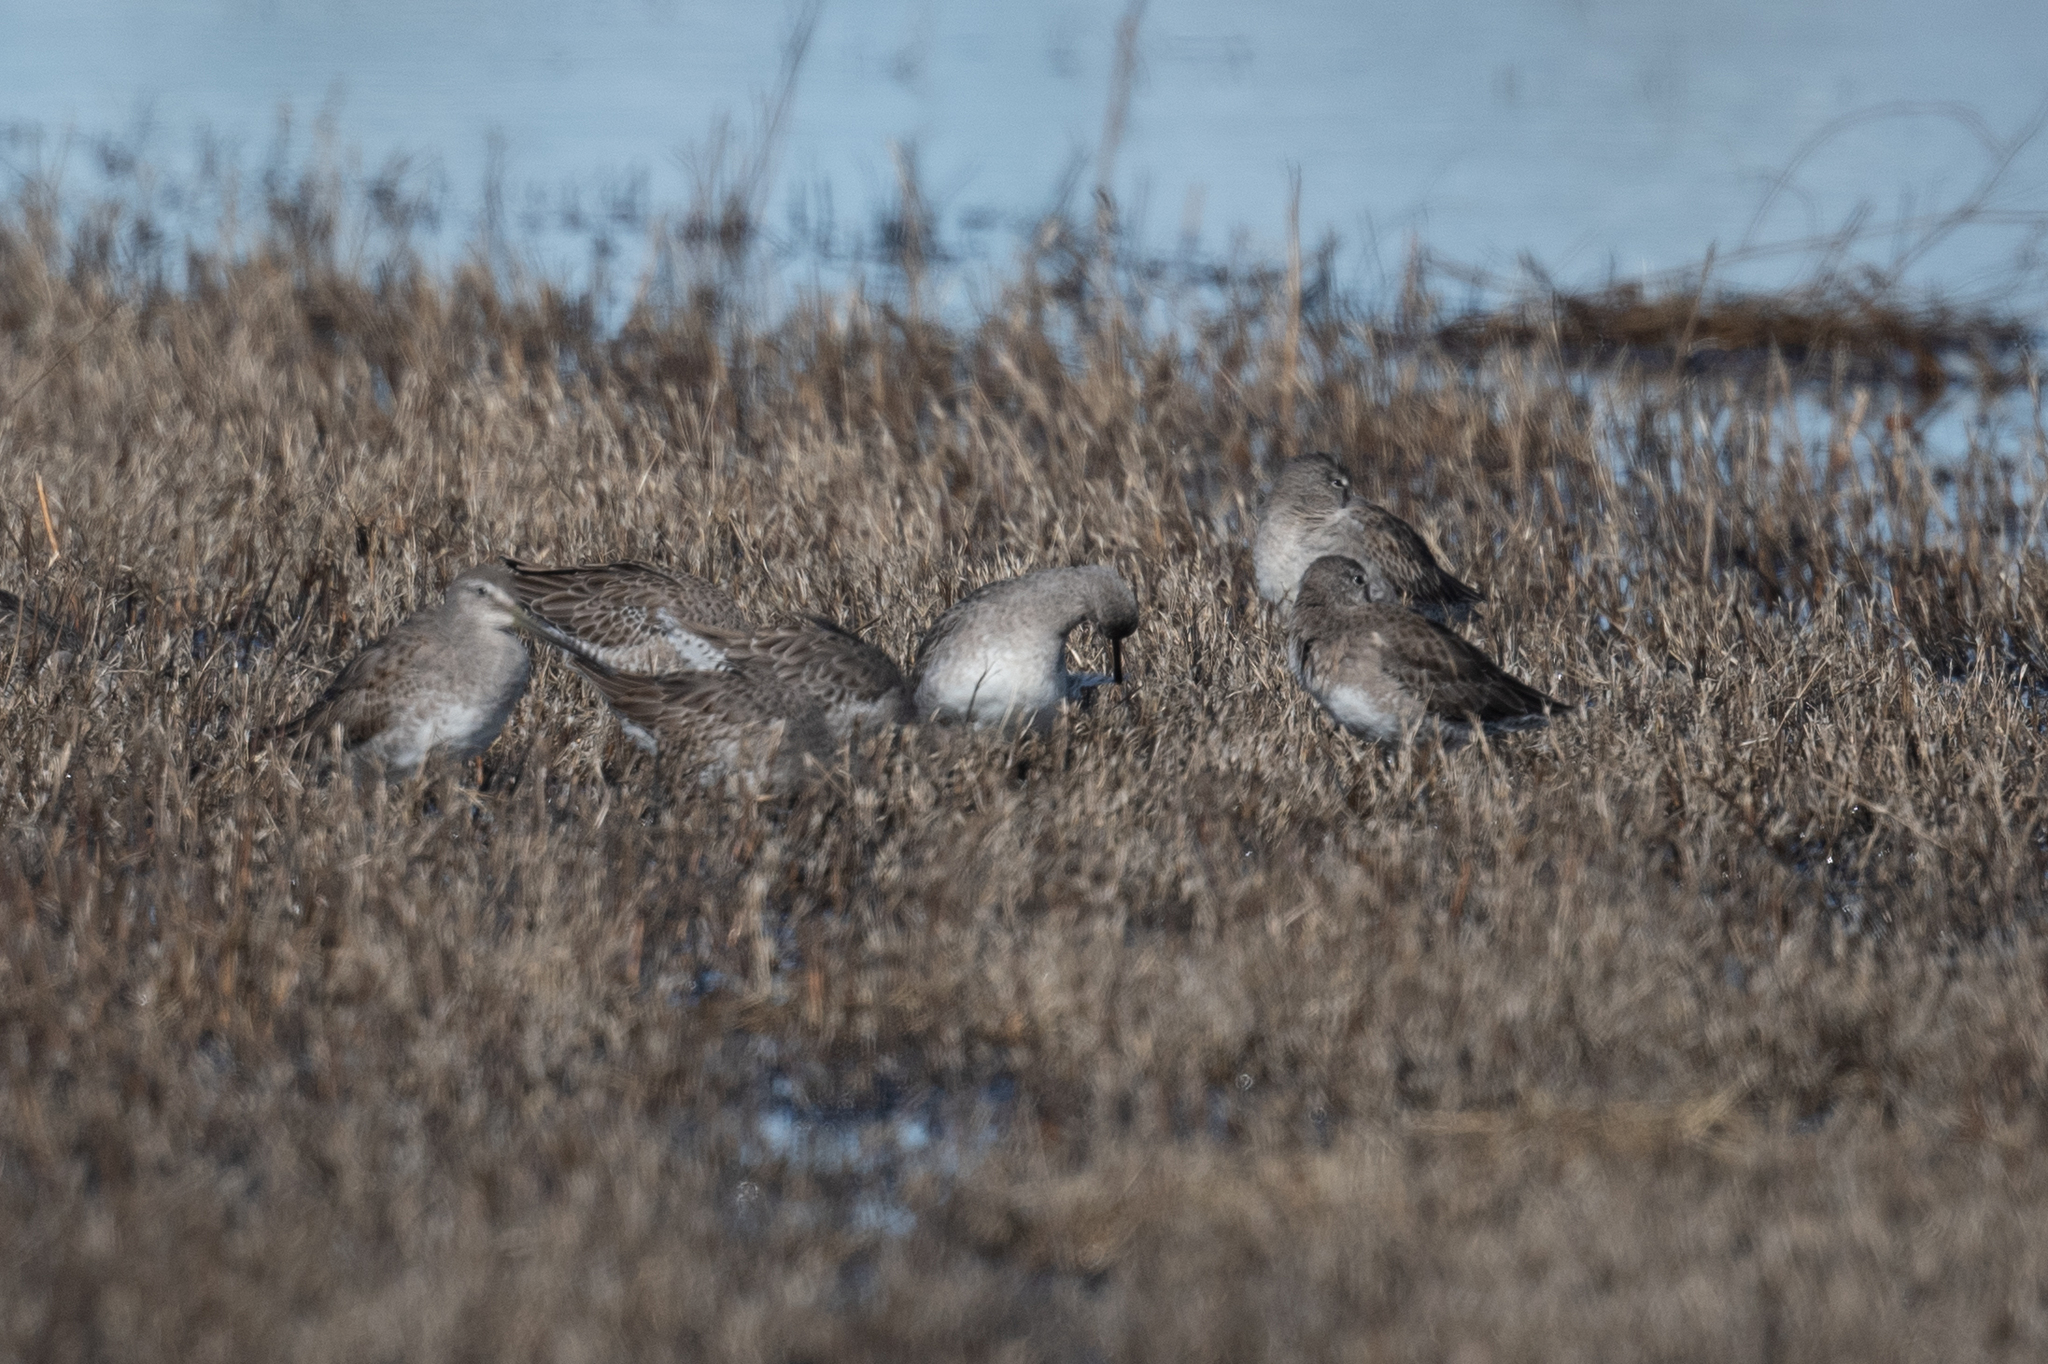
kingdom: Animalia
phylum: Chordata
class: Aves
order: Charadriiformes
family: Scolopacidae
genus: Limnodromus
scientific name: Limnodromus scolopaceus
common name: Long-billed dowitcher
